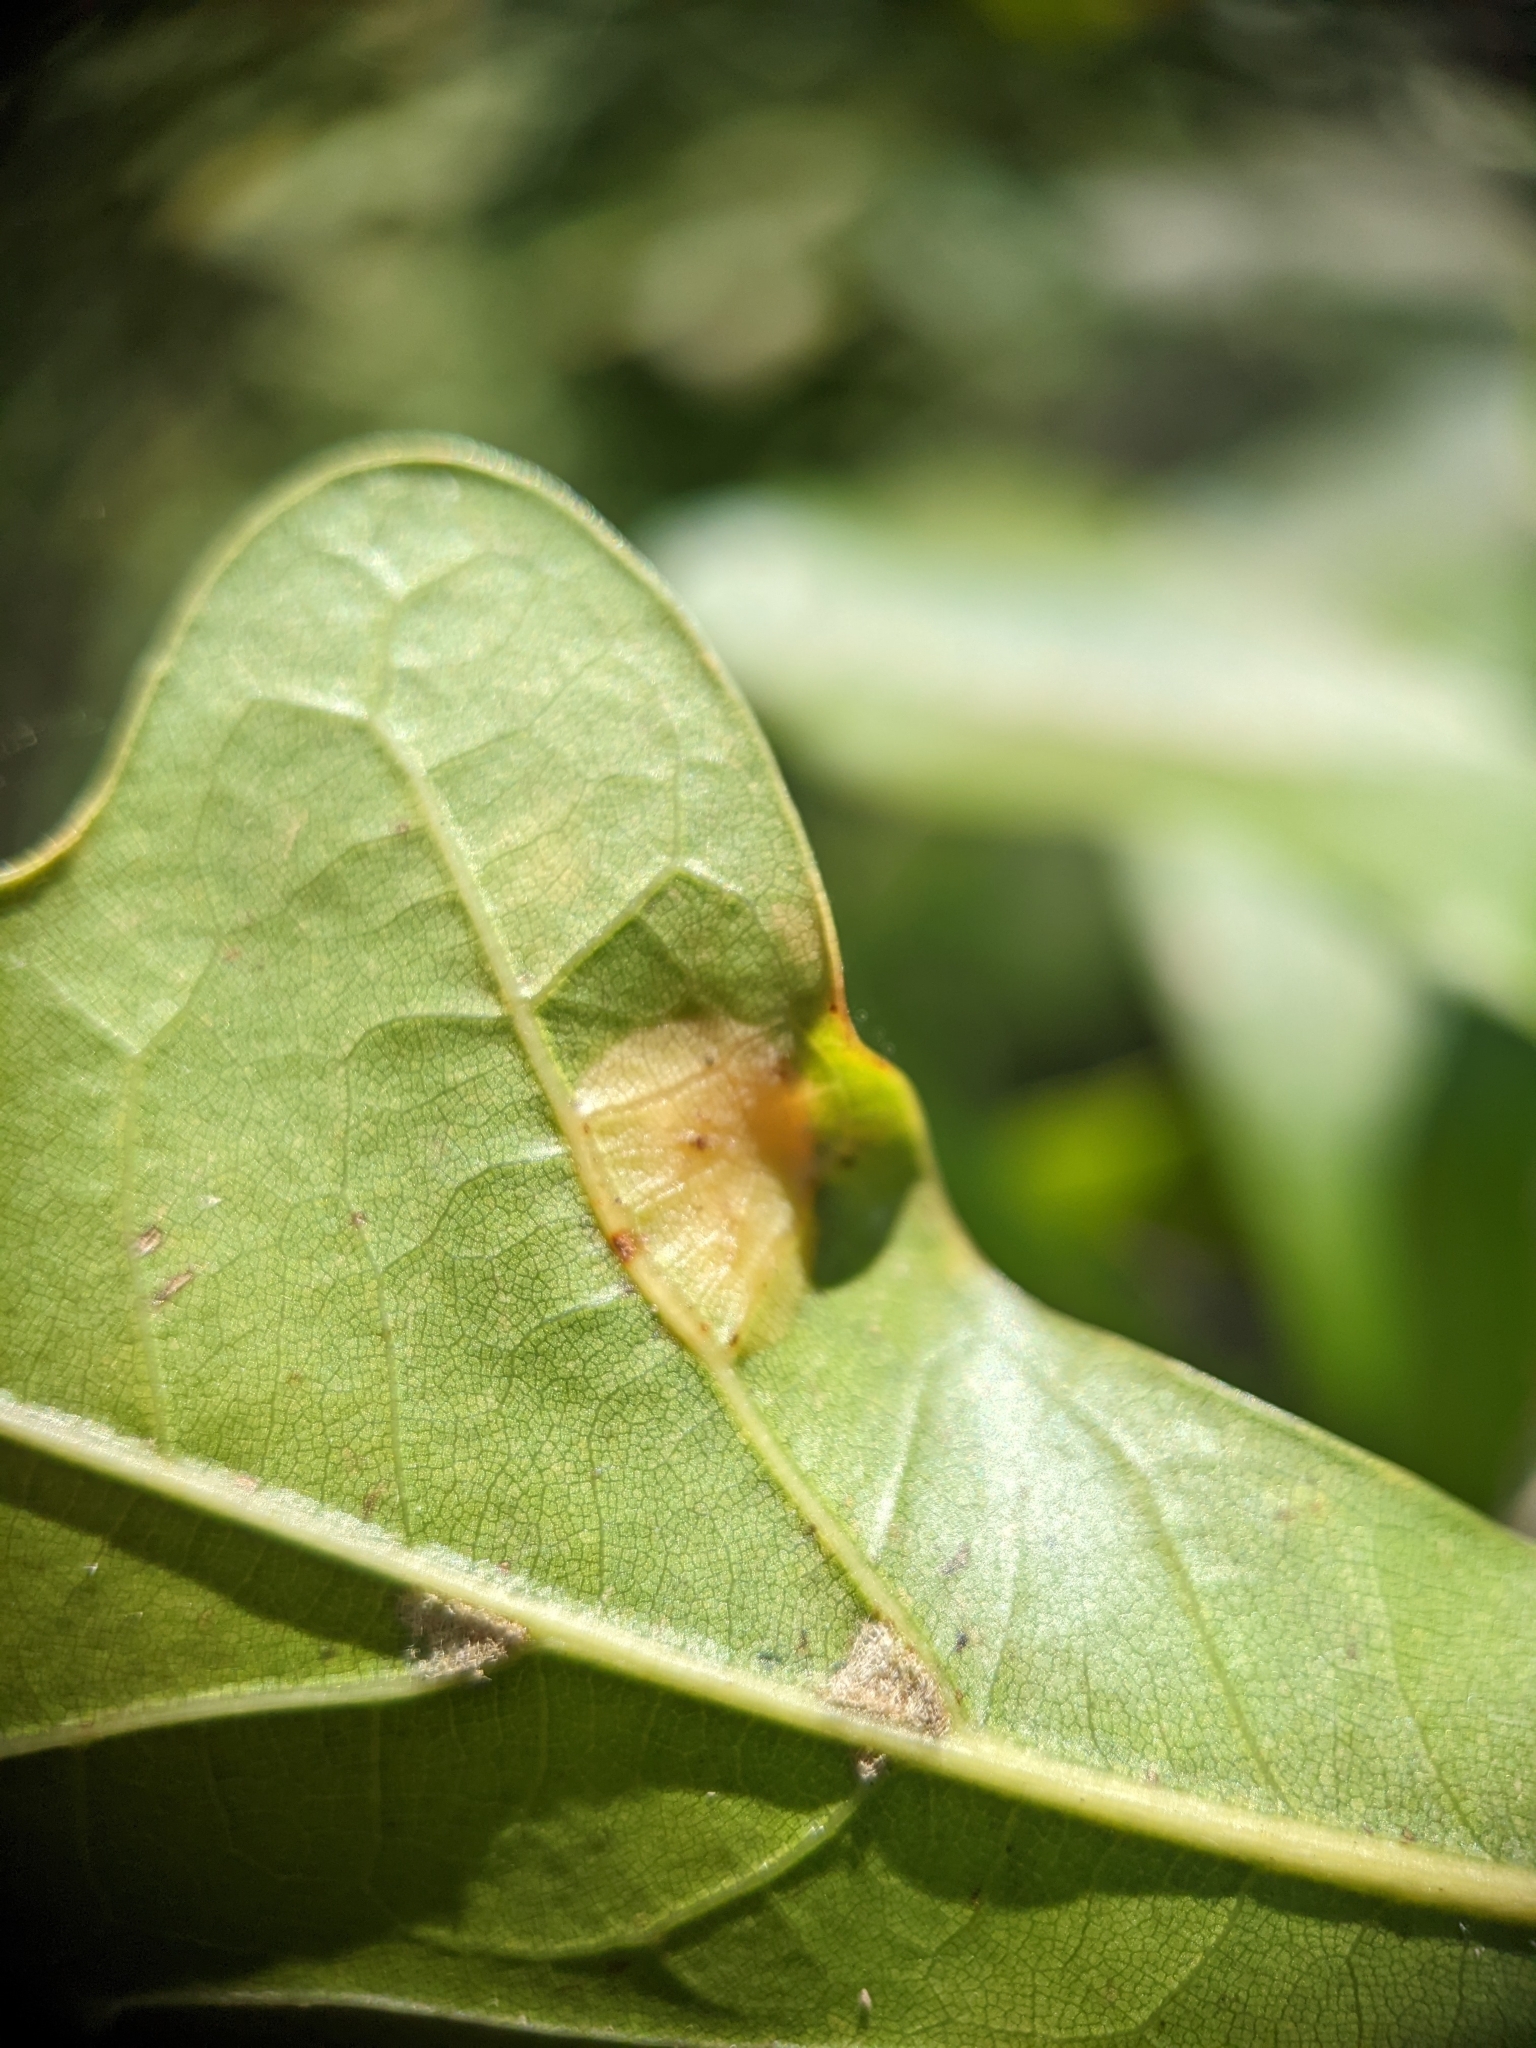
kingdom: Animalia
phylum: Arthropoda
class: Insecta
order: Diptera
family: Cecidomyiidae
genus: Polystepha
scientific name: Polystepha pilulae
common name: Oak leaf gall midge
